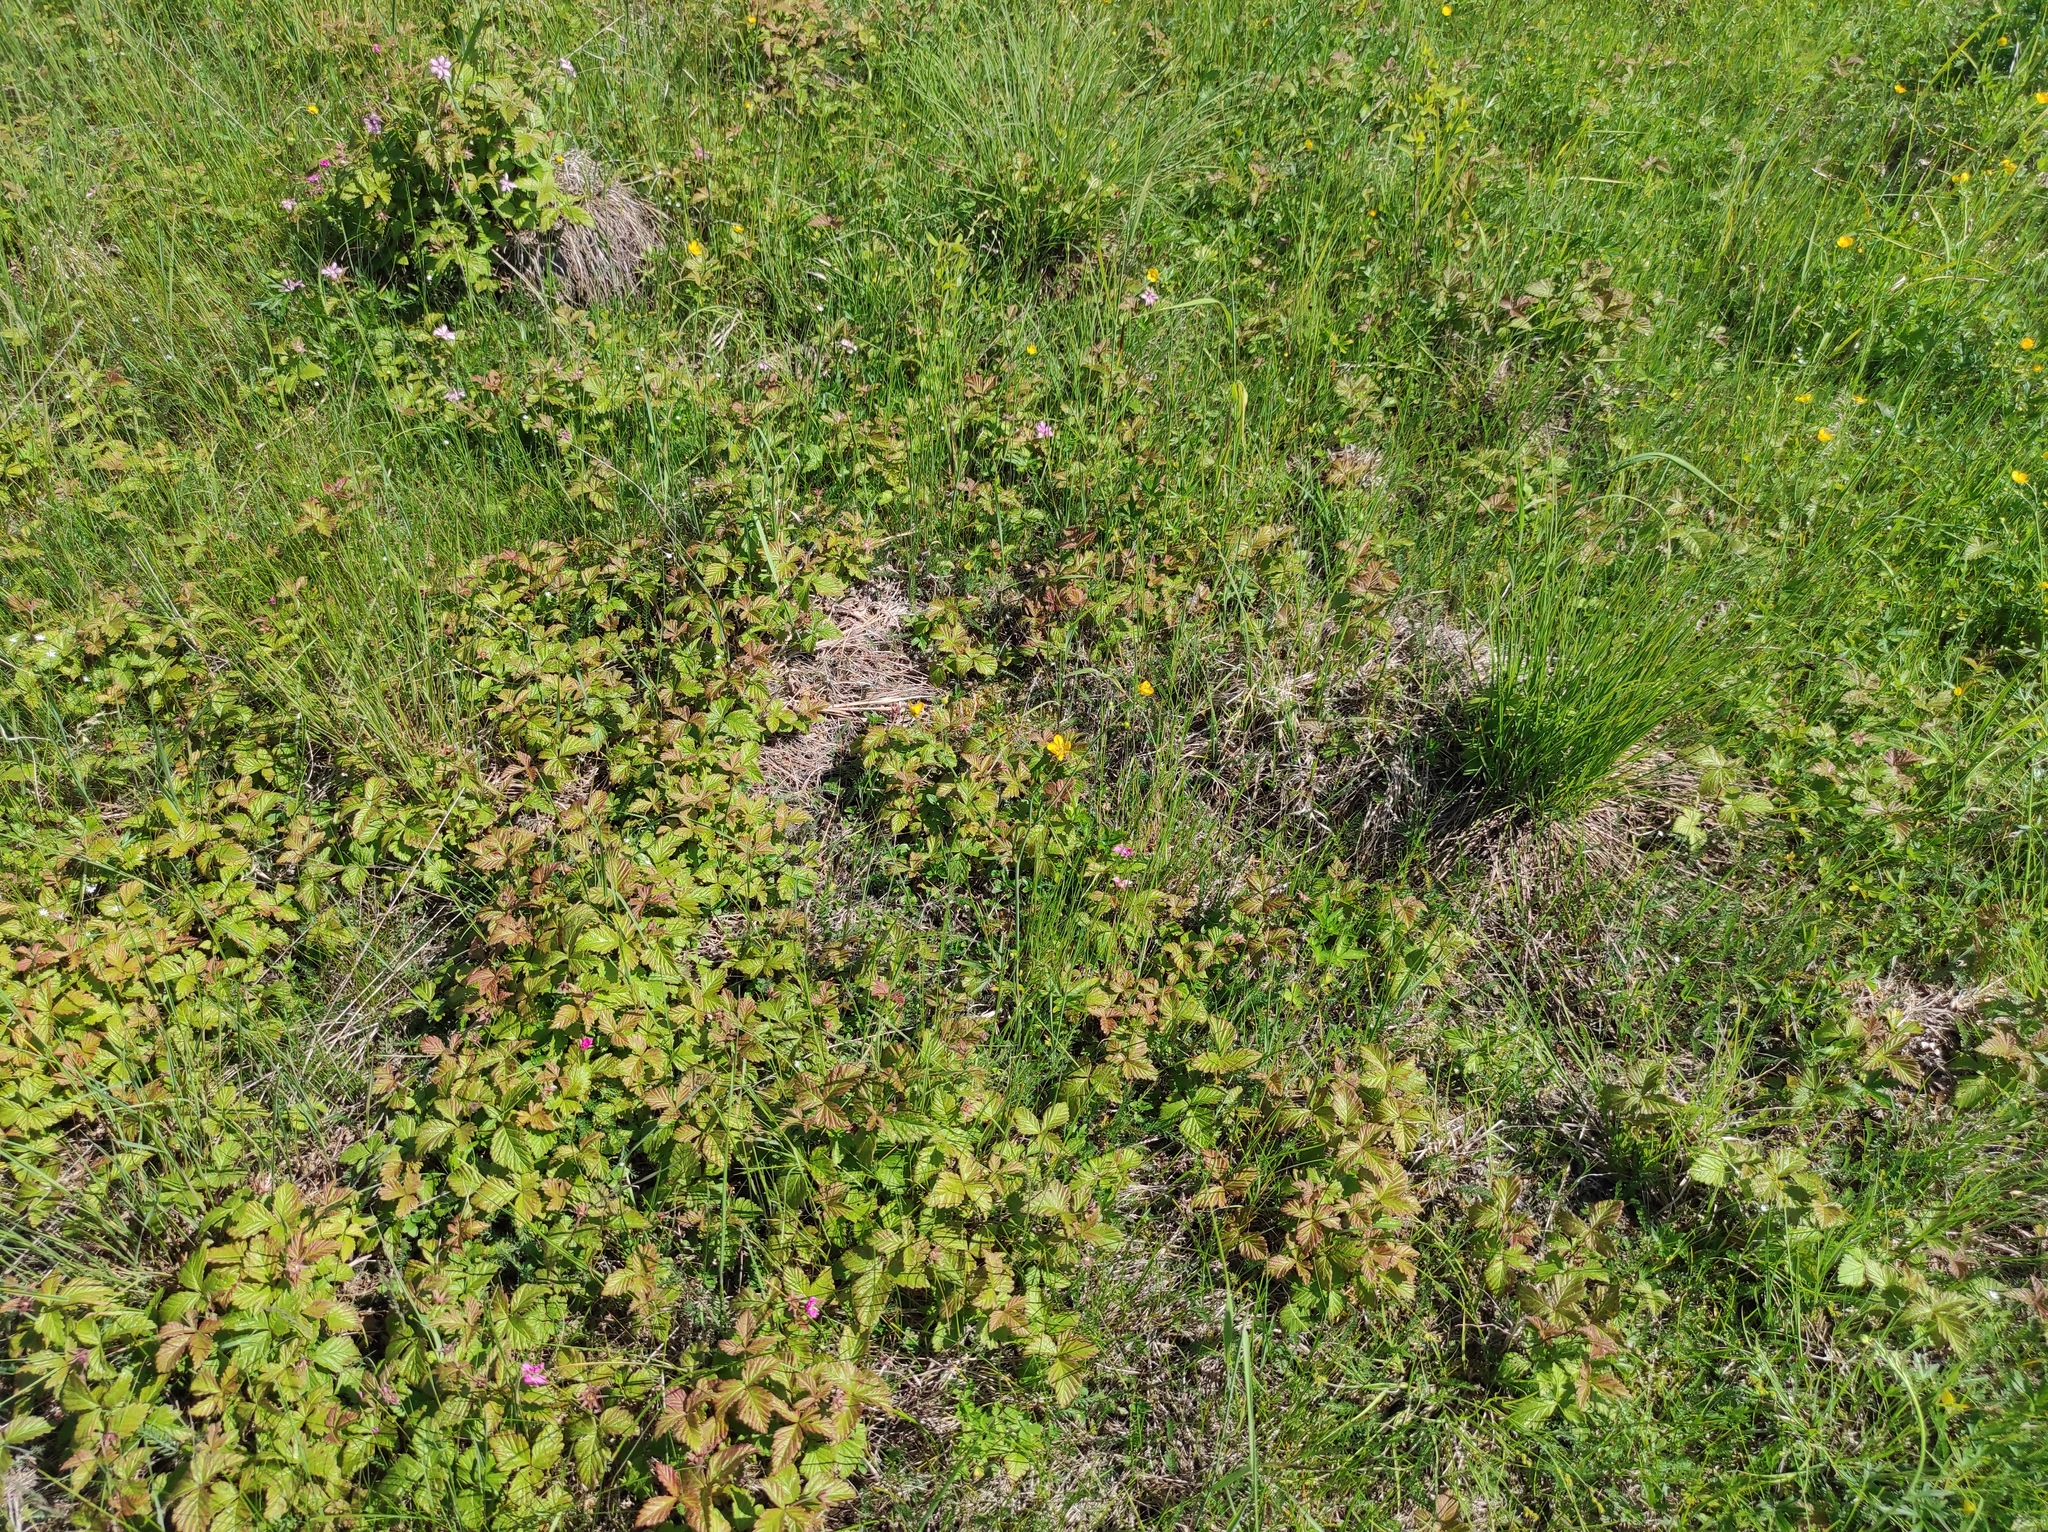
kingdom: Plantae
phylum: Tracheophyta
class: Magnoliopsida
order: Rosales
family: Rosaceae
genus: Rubus
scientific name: Rubus arcticus
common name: Arctic bramble
